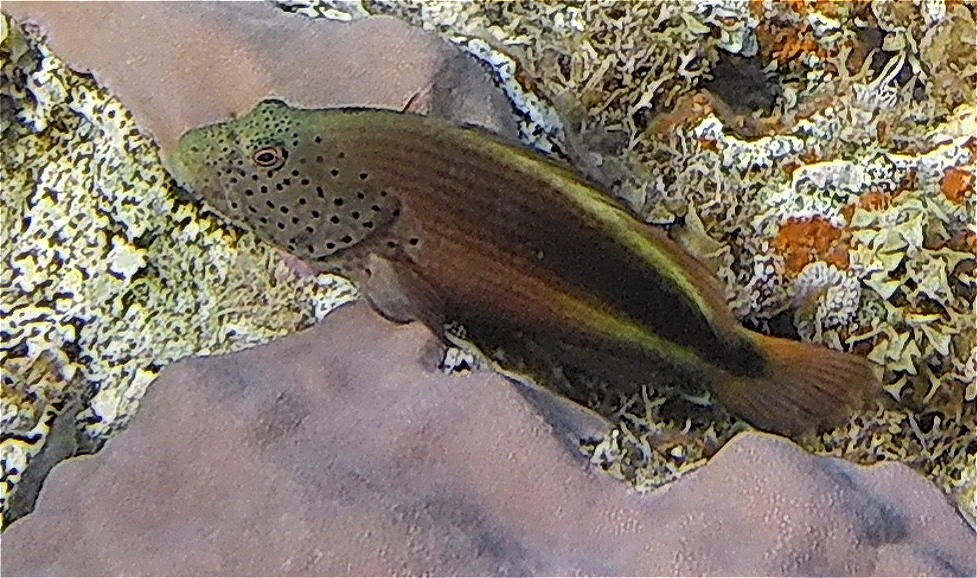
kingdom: Animalia
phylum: Chordata
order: Perciformes
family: Cirrhitidae
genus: Paracirrhites
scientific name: Paracirrhites forsteri
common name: Freckled hawkfish
